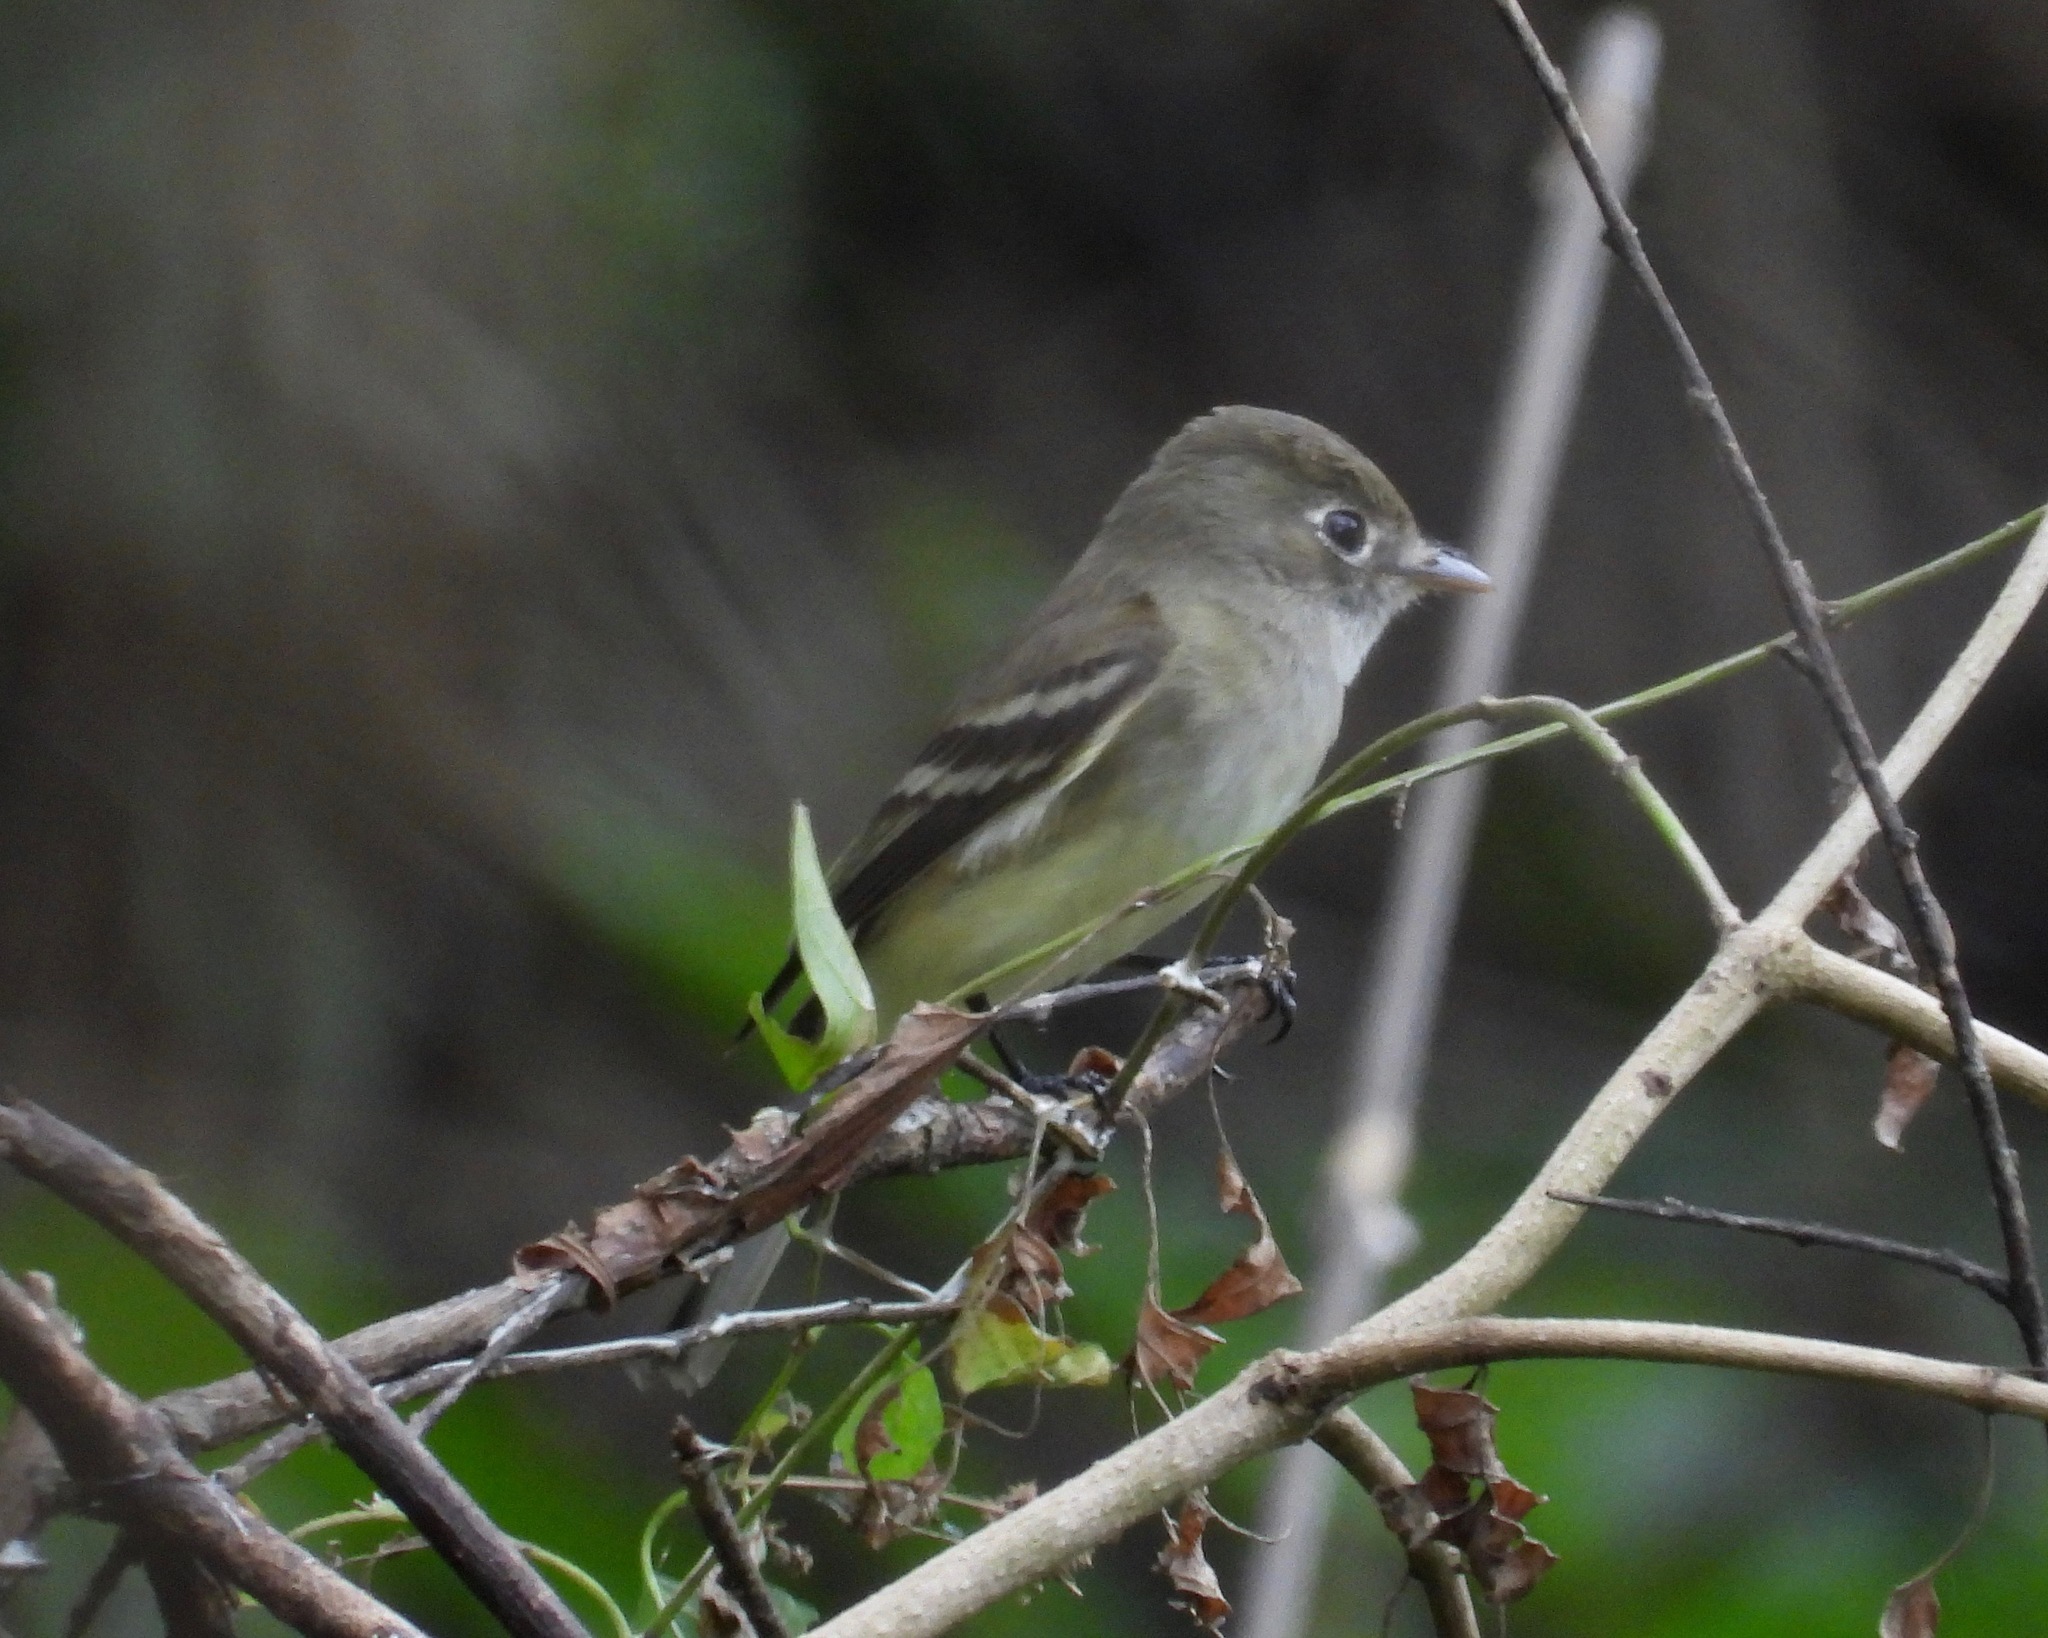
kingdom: Animalia
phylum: Chordata
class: Aves
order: Passeriformes
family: Tyrannidae
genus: Empidonax
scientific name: Empidonax minimus
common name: Least flycatcher
